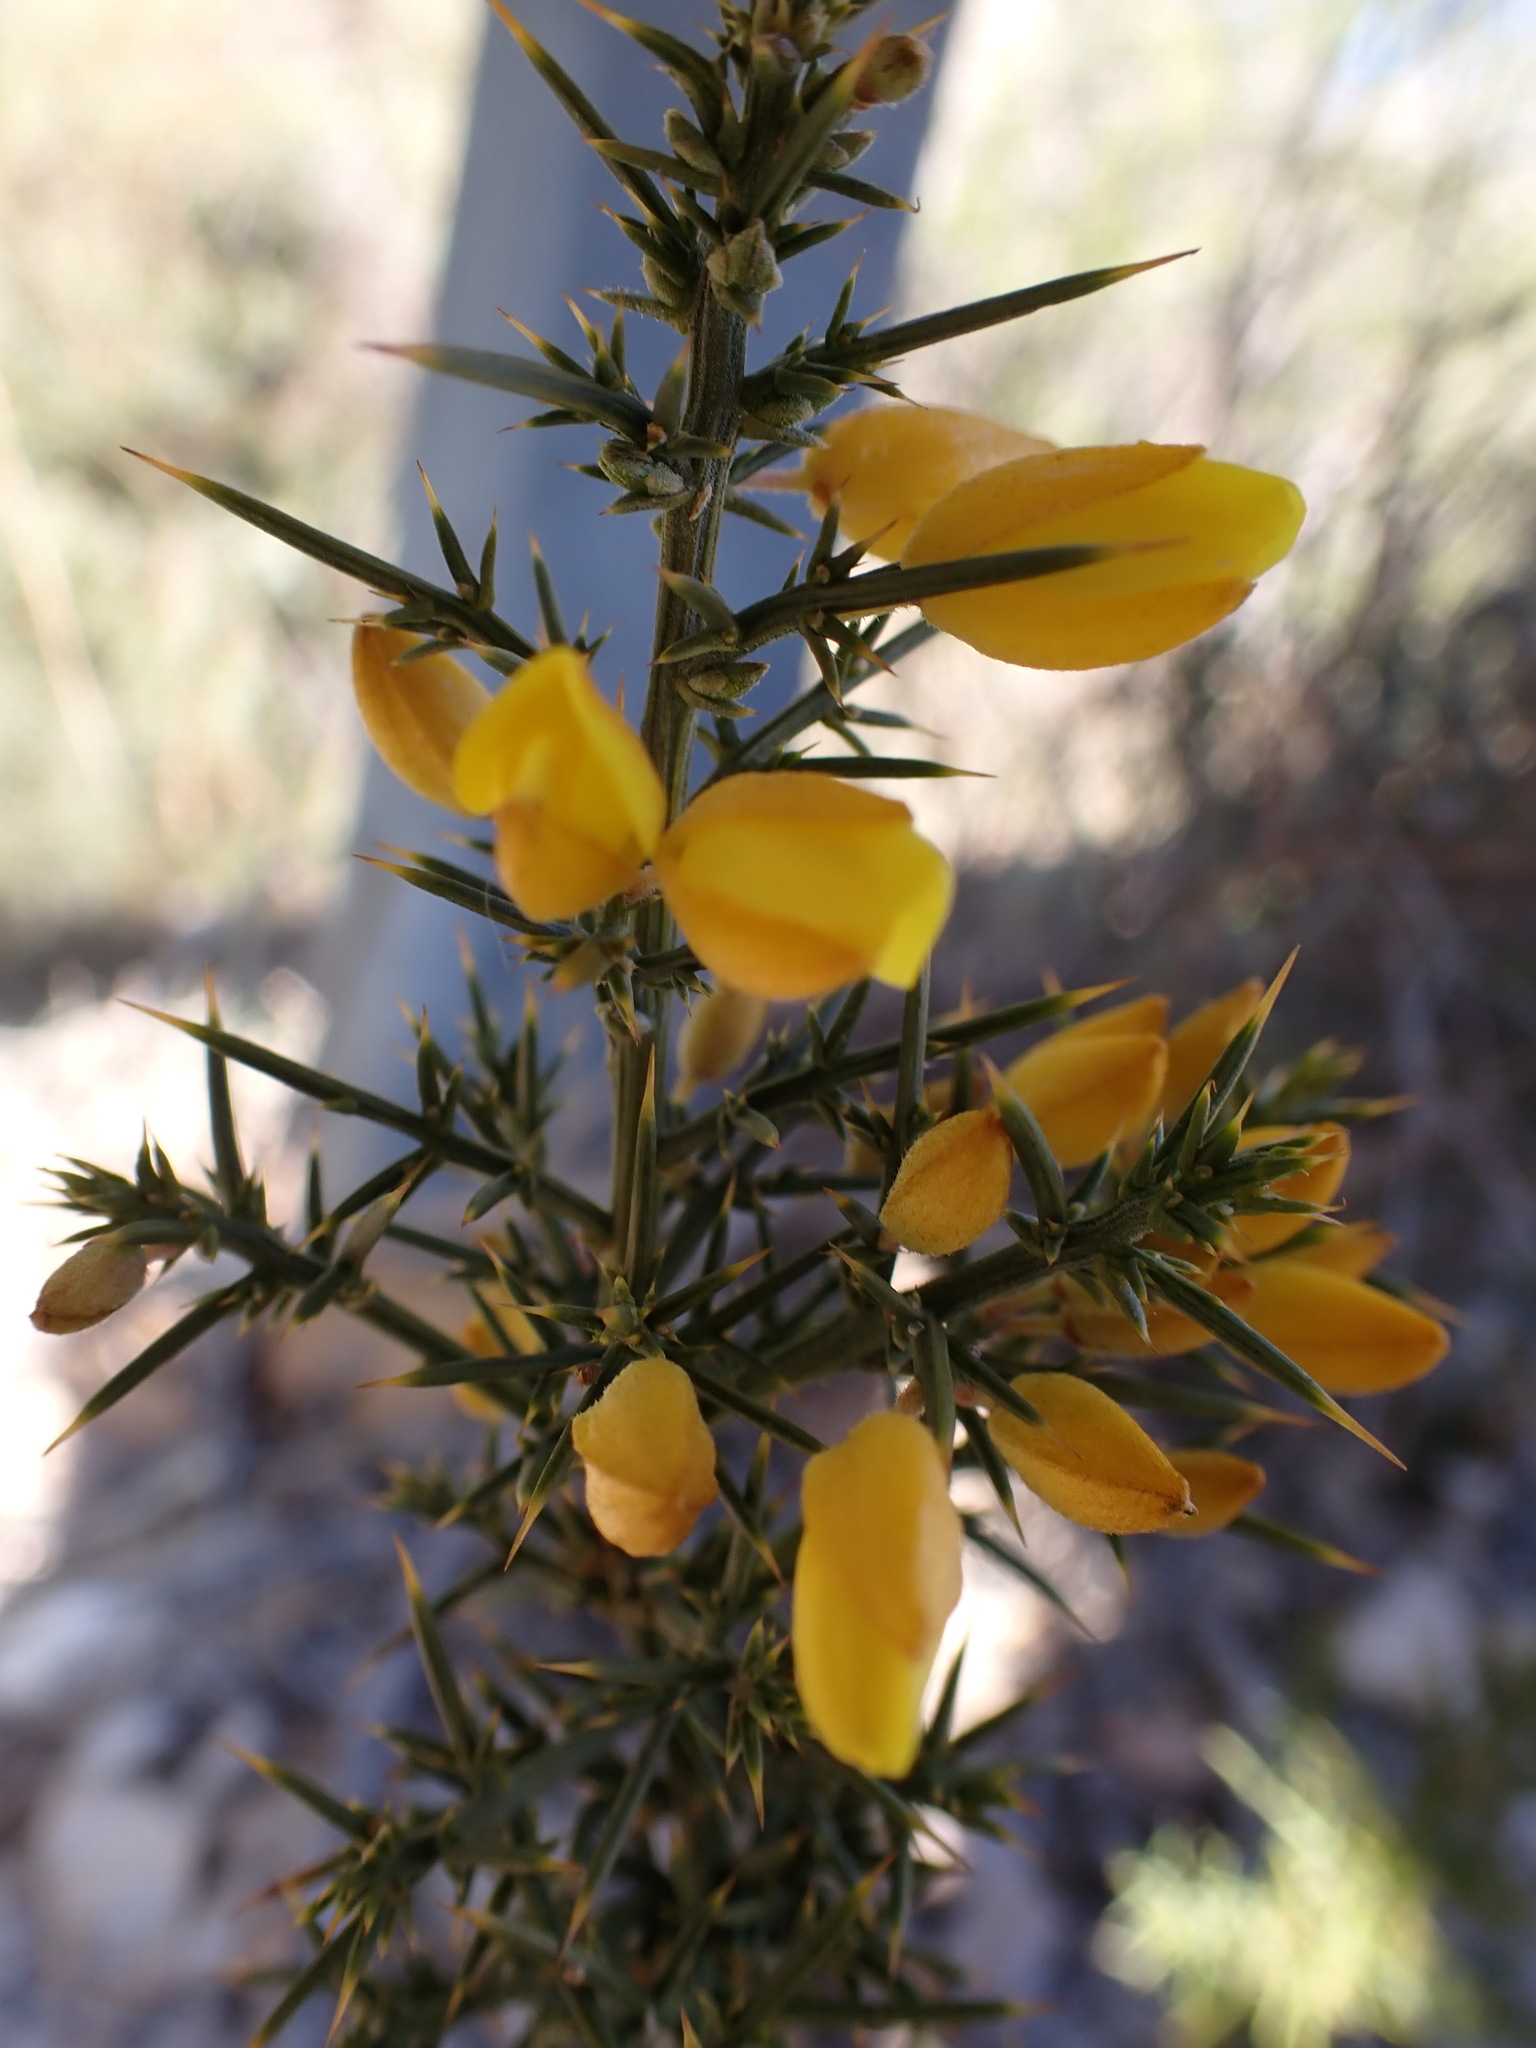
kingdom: Plantae
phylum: Tracheophyta
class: Magnoliopsida
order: Fabales
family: Fabaceae
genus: Ulex
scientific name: Ulex parviflorus
